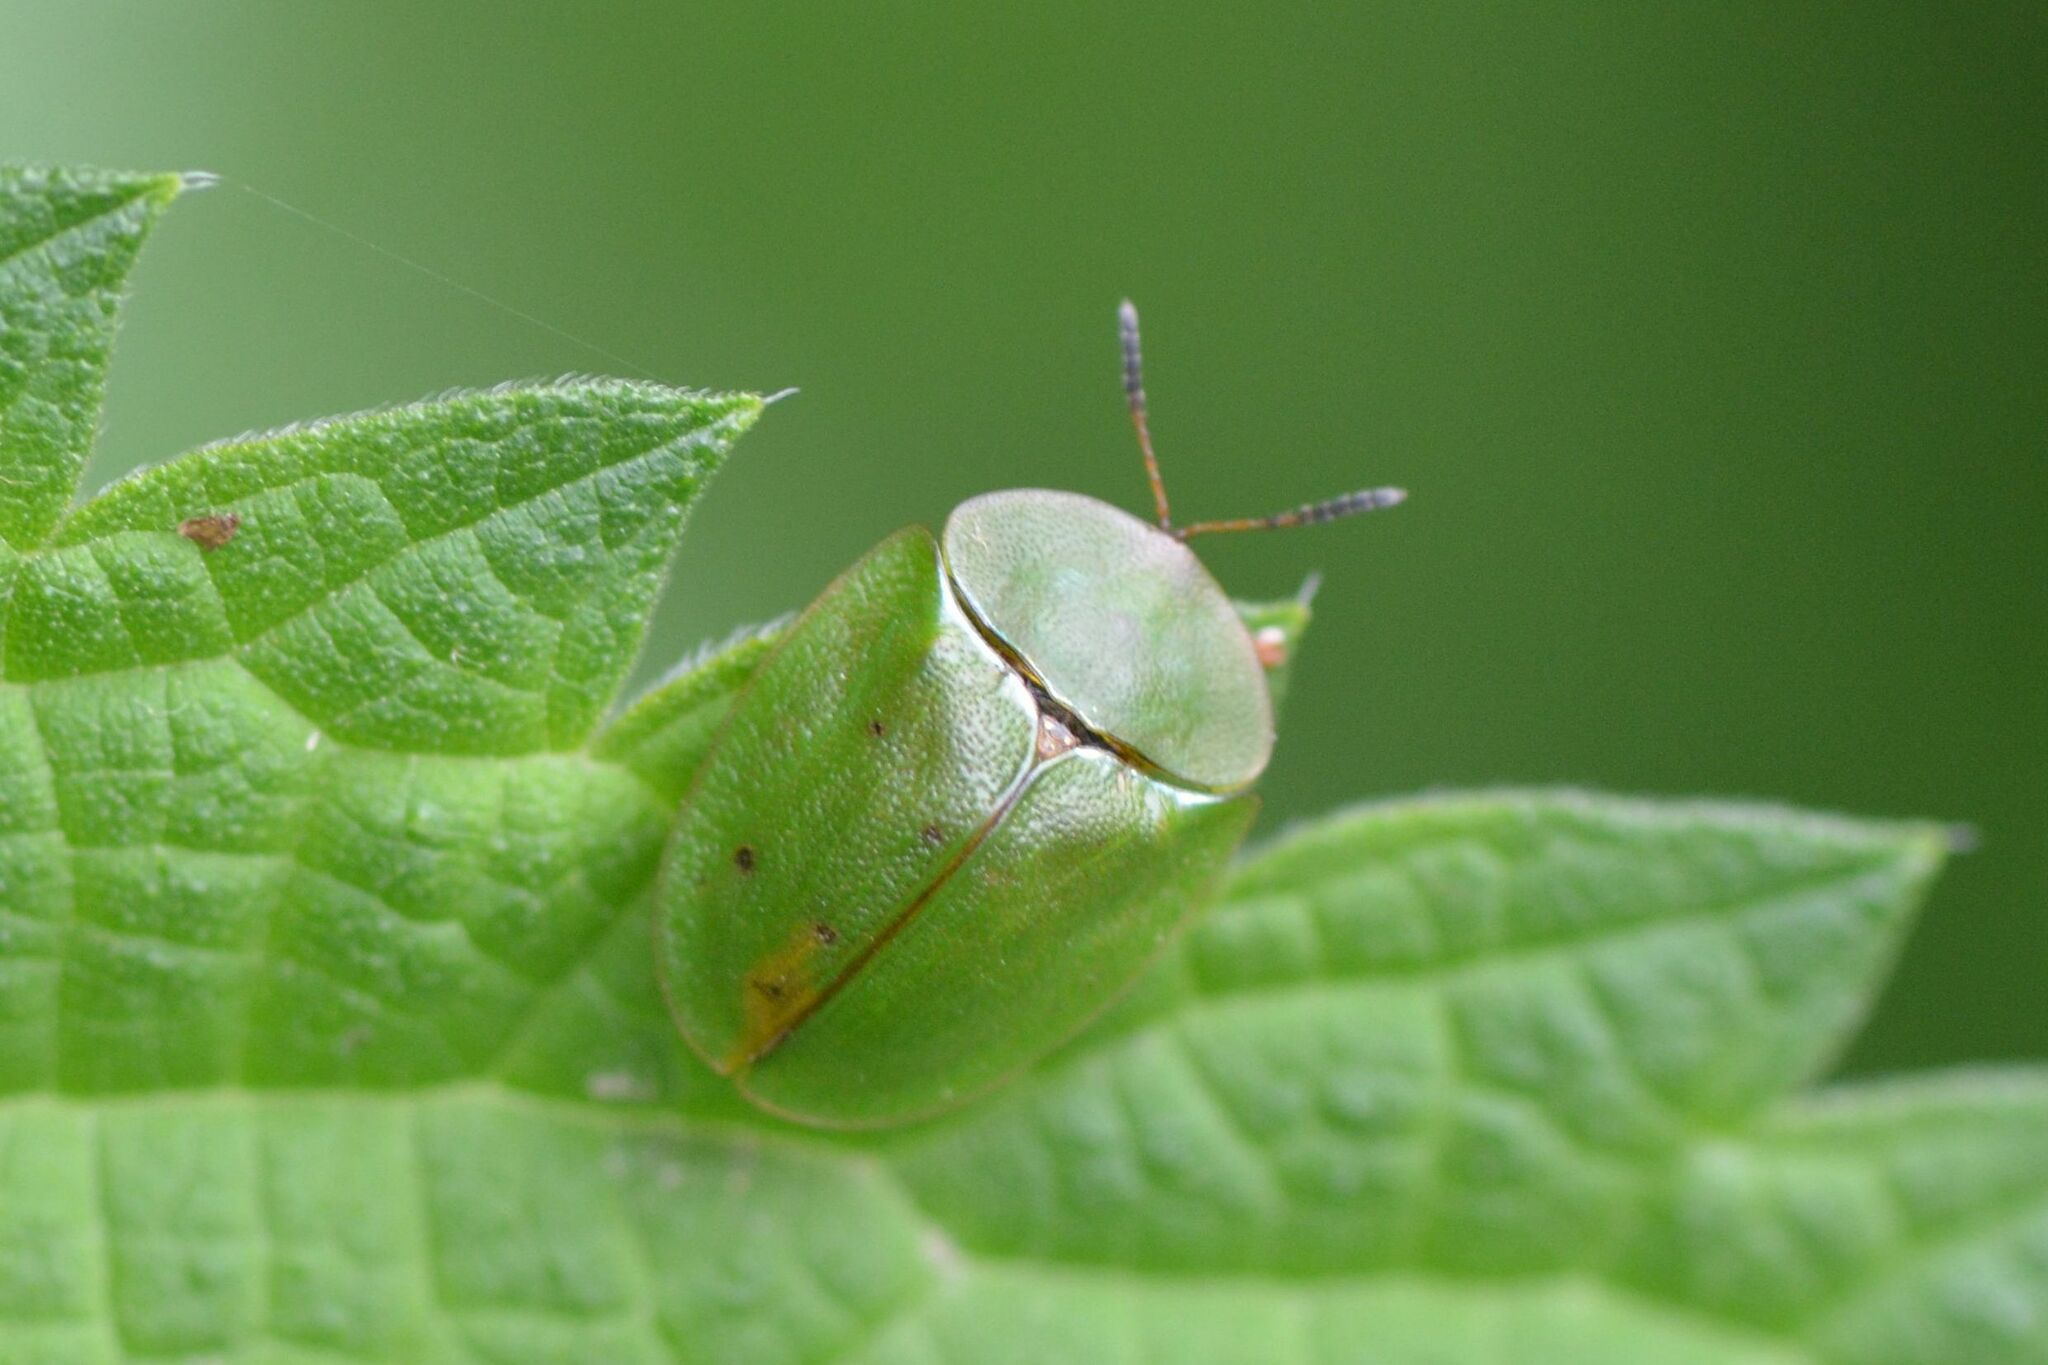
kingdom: Animalia
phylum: Arthropoda
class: Insecta
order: Coleoptera
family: Chrysomelidae
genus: Cassida
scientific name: Cassida viridis
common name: Green tortoise beetle
